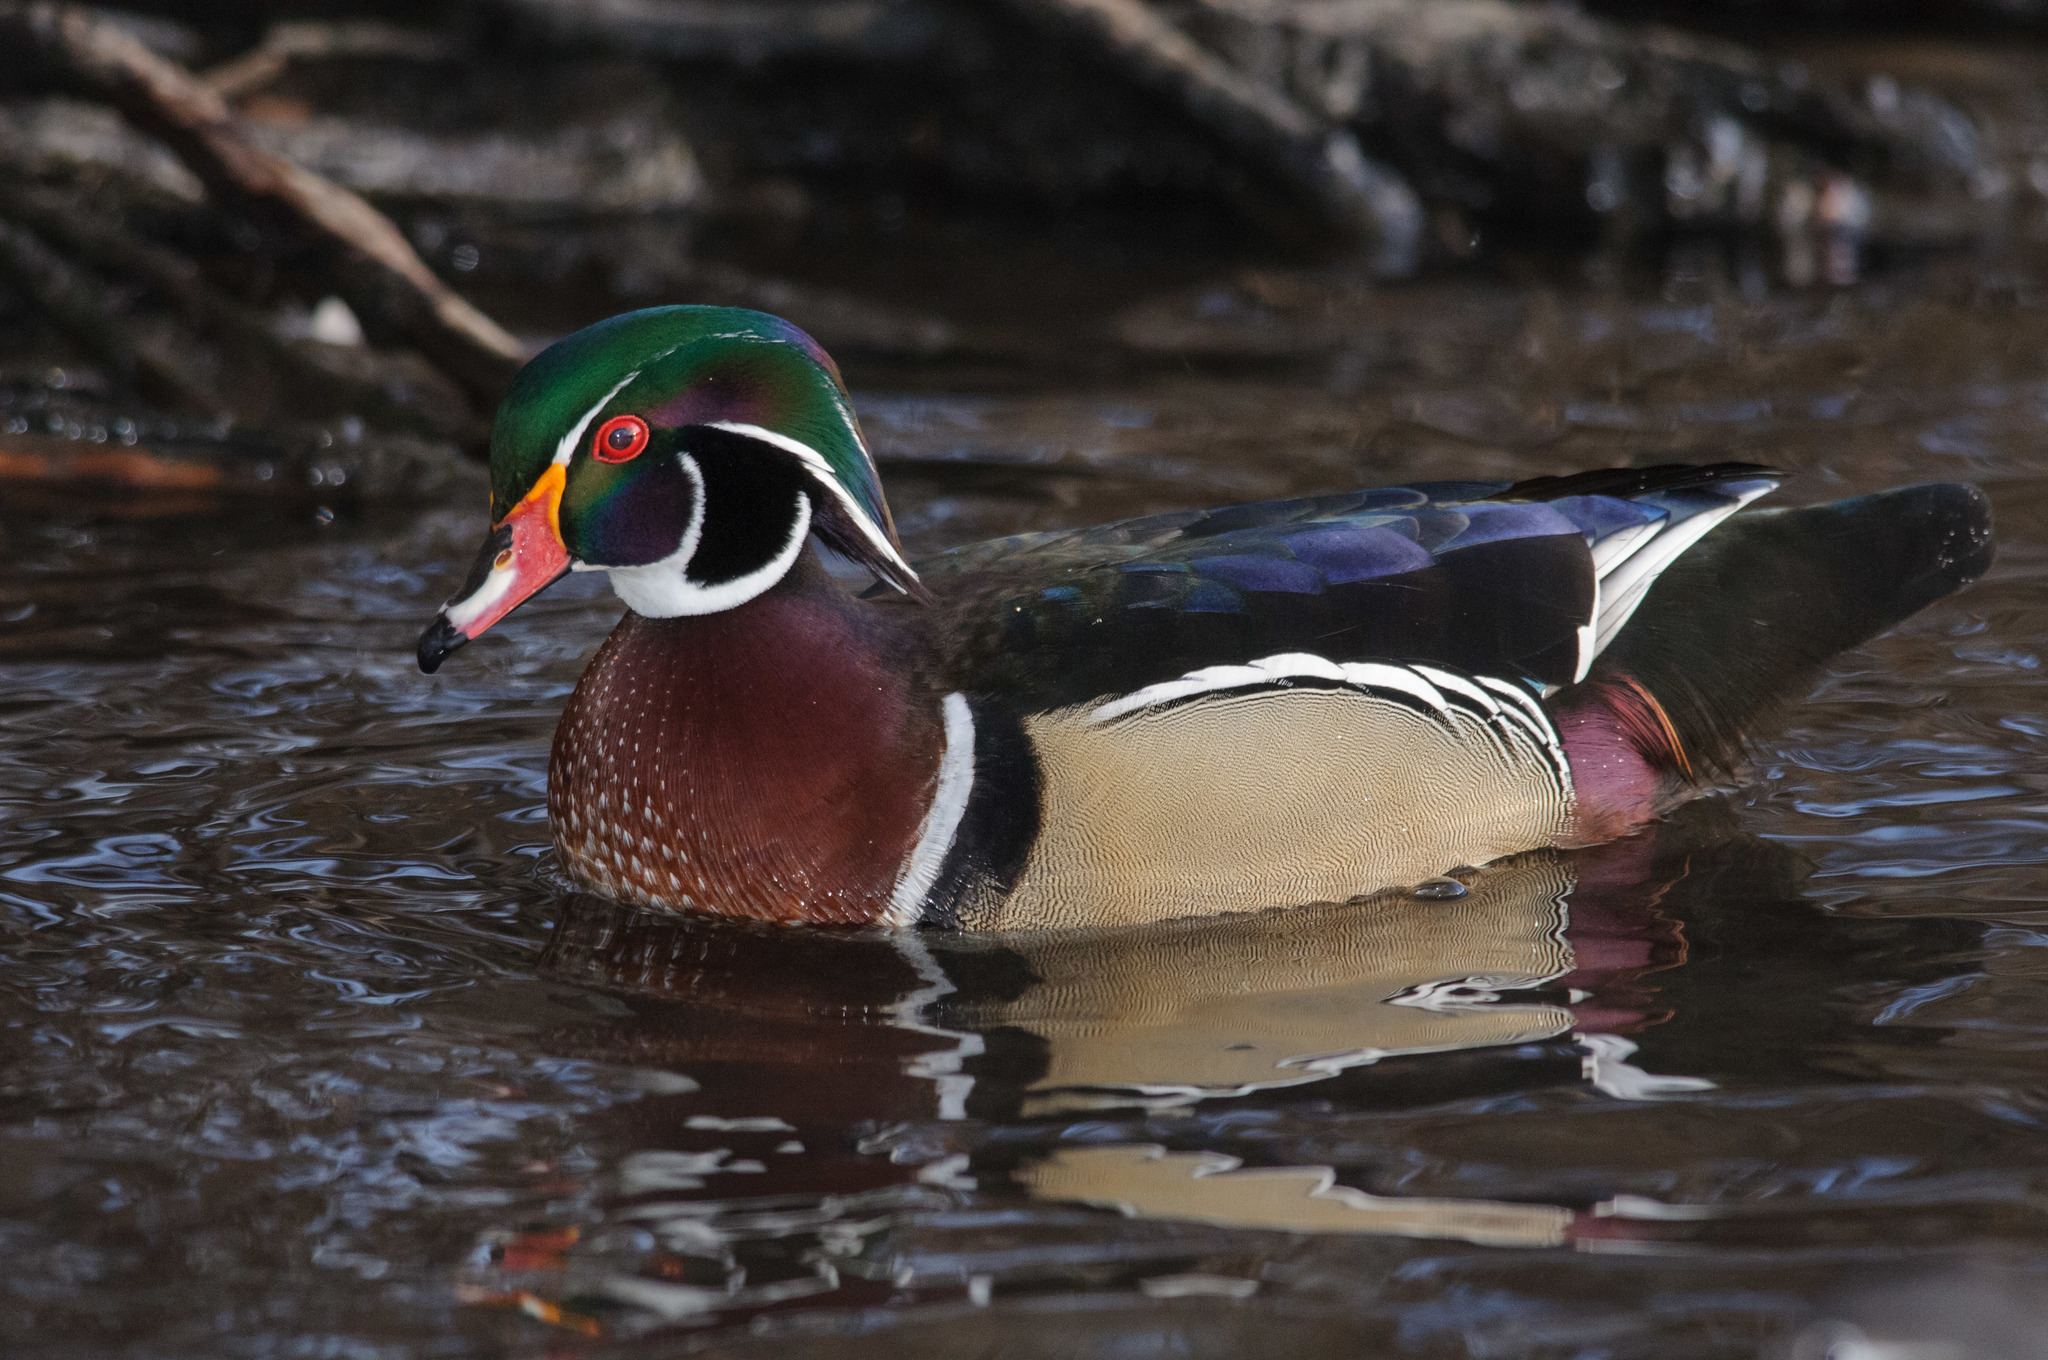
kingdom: Animalia
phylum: Chordata
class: Aves
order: Anseriformes
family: Anatidae
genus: Aix
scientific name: Aix sponsa
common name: Wood duck
